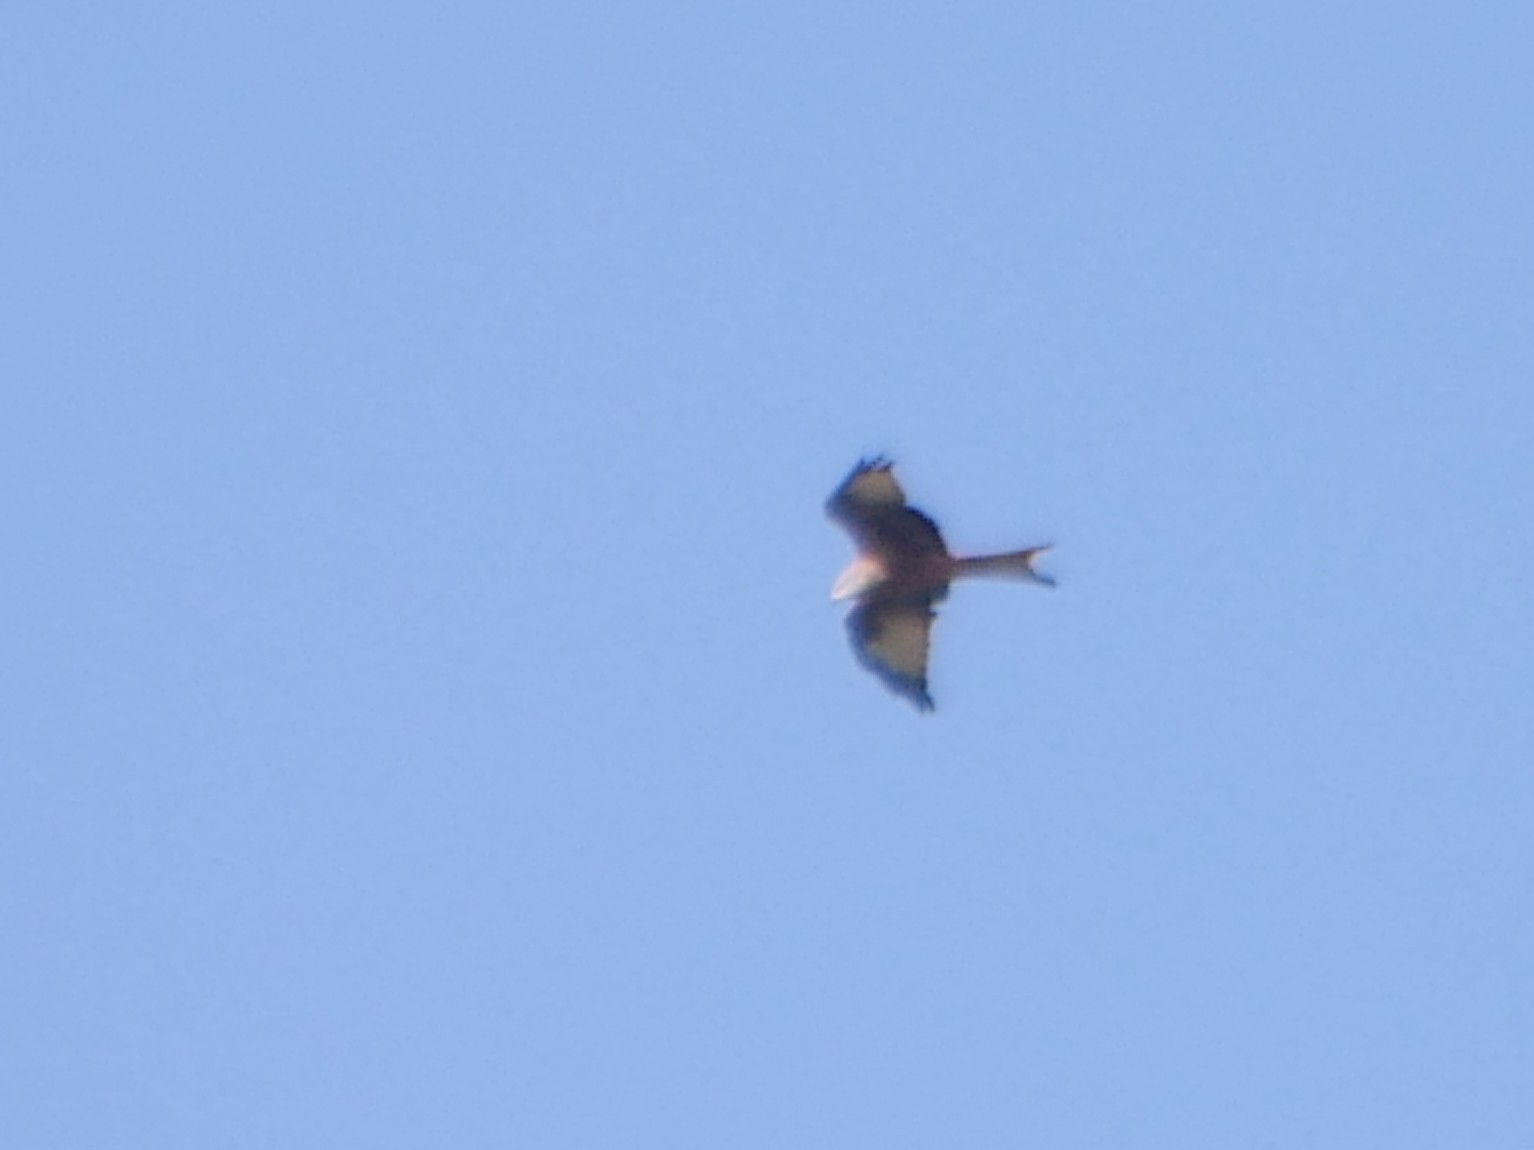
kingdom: Animalia
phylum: Chordata
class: Aves
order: Accipitriformes
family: Accipitridae
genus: Milvus
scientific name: Milvus milvus
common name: Red kite
